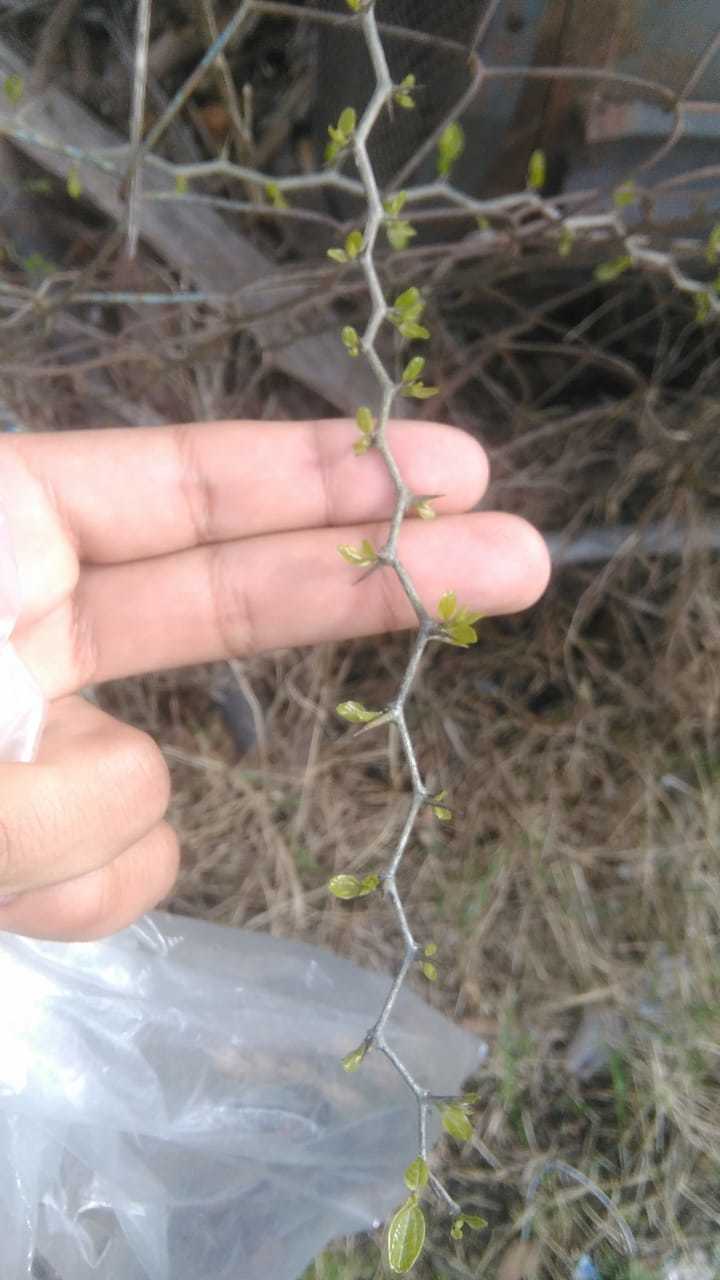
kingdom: Plantae
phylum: Tracheophyta
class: Magnoliopsida
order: Rosales
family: Cannabaceae
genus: Celtis
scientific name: Celtis tala
